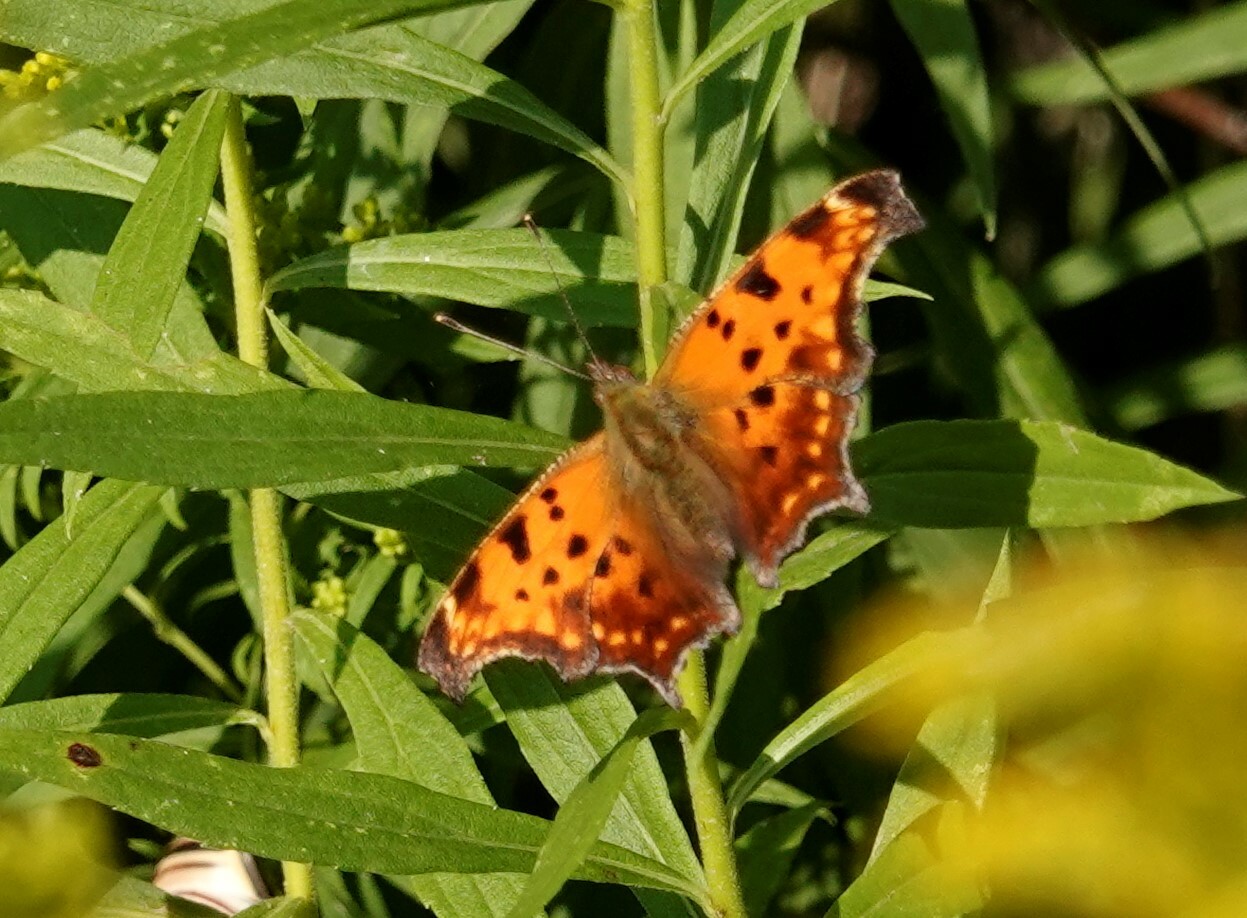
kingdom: Animalia
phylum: Arthropoda
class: Insecta
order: Lepidoptera
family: Nymphalidae
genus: Polygonia
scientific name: Polygonia comma
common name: Eastern comma
